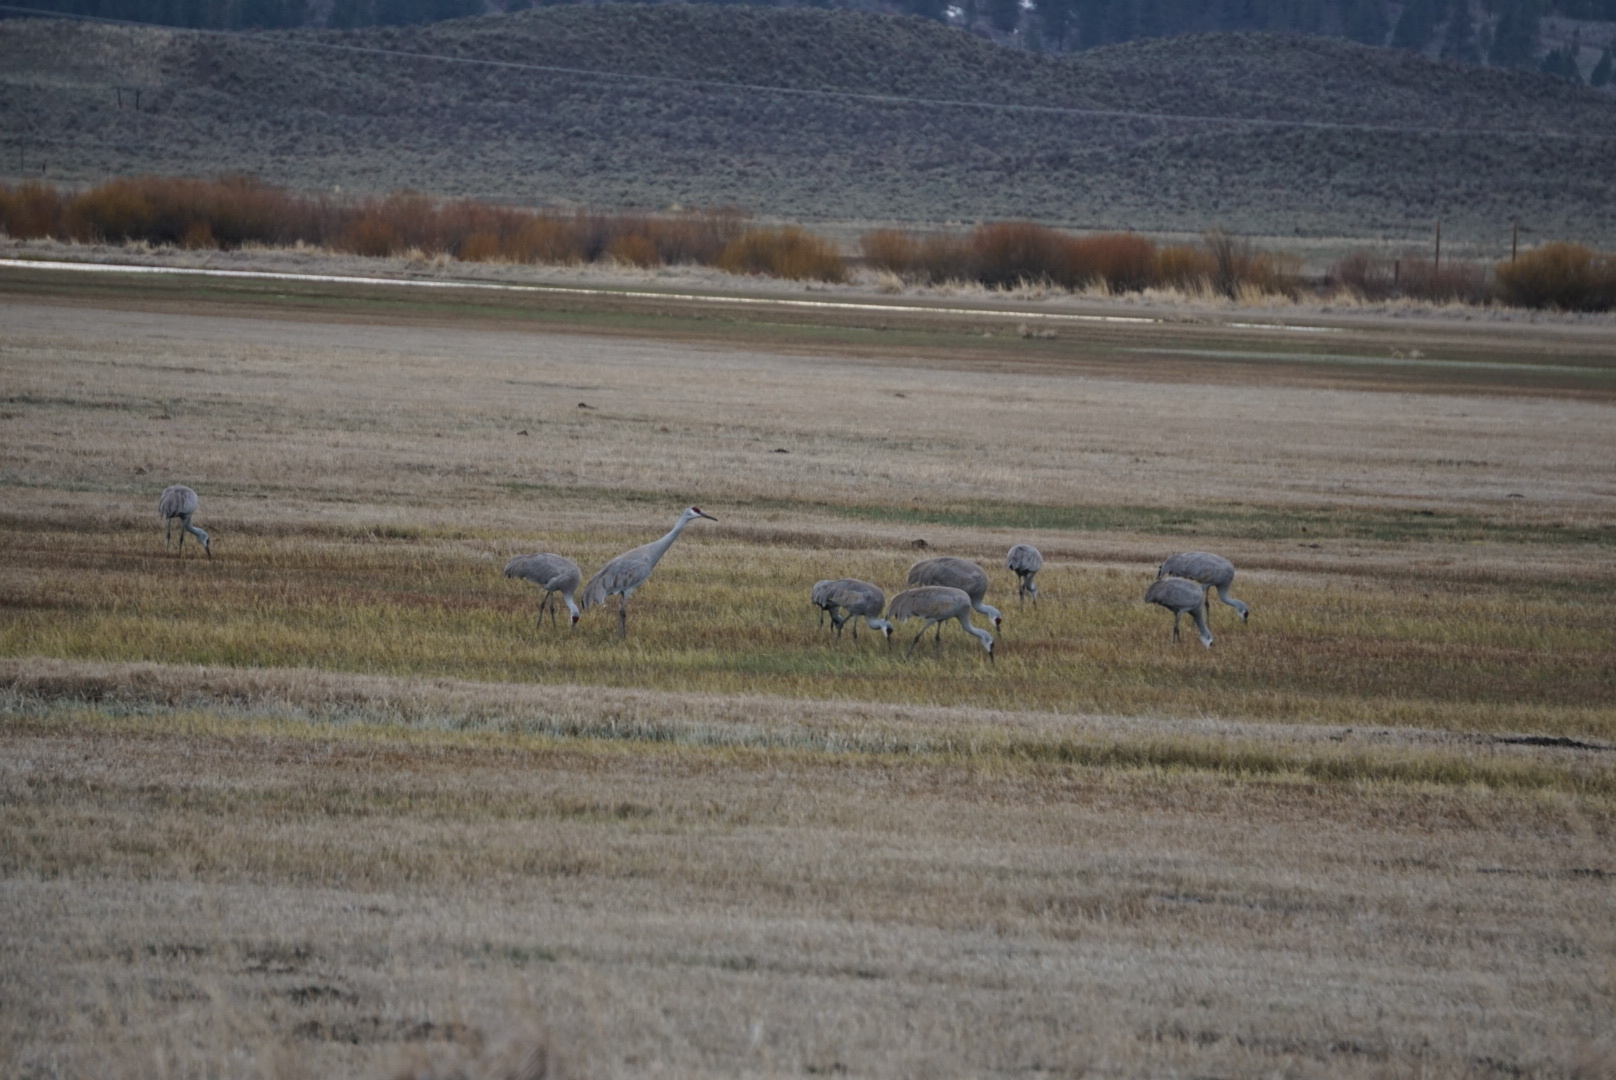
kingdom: Animalia
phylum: Chordata
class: Aves
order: Gruiformes
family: Gruidae
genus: Grus
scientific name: Grus canadensis
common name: Sandhill crane
